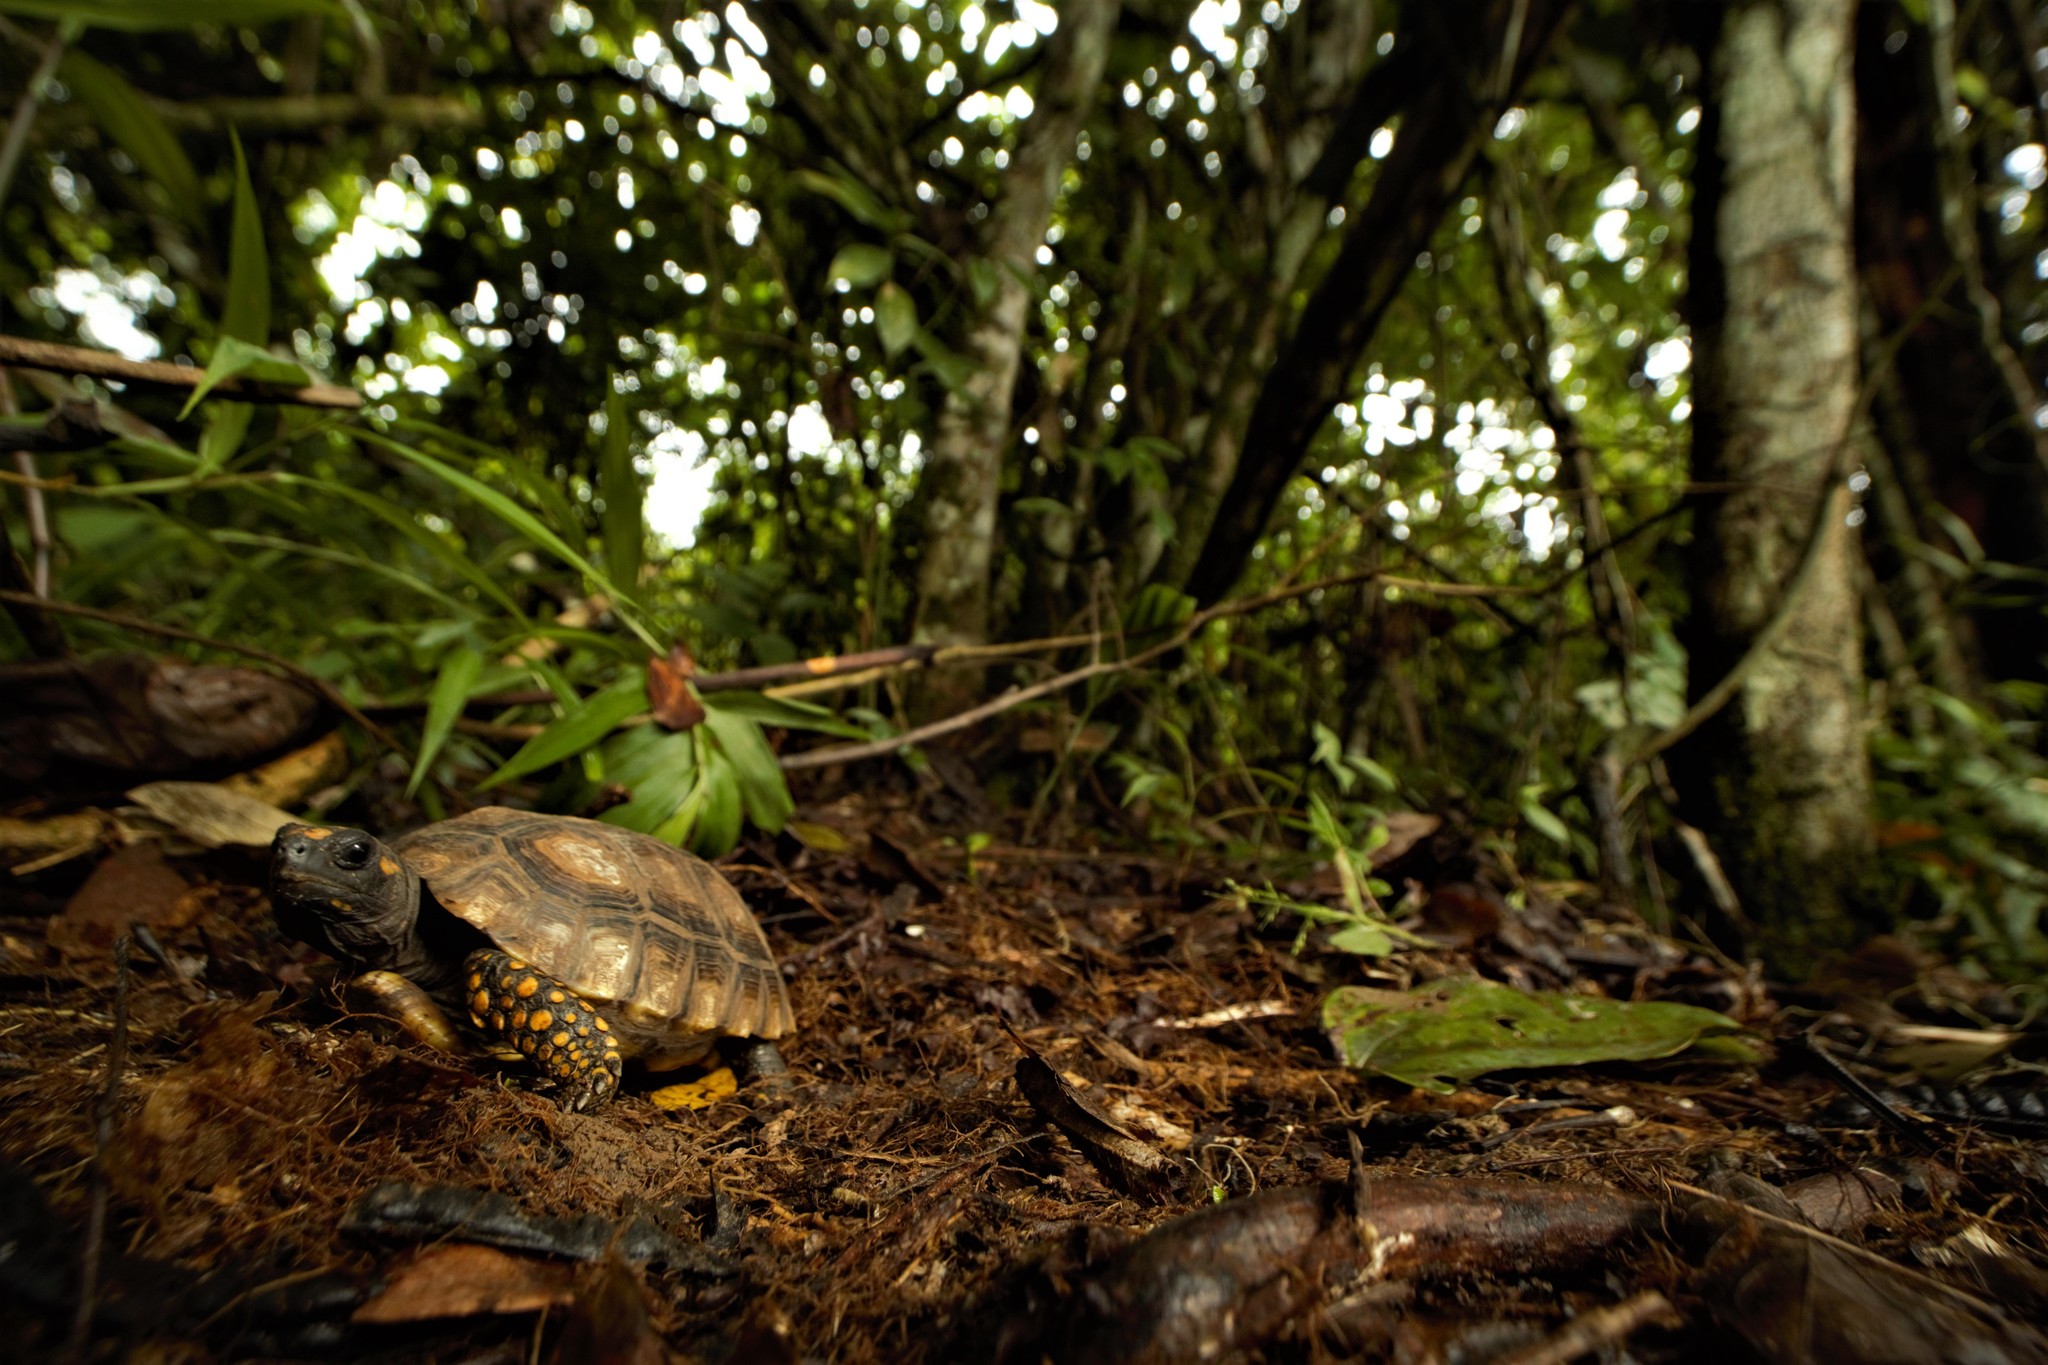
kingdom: Animalia
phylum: Chordata
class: Testudines
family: Testudinidae
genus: Chelonoidis
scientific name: Chelonoidis denticulatus
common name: Yellow-footed tortoise
